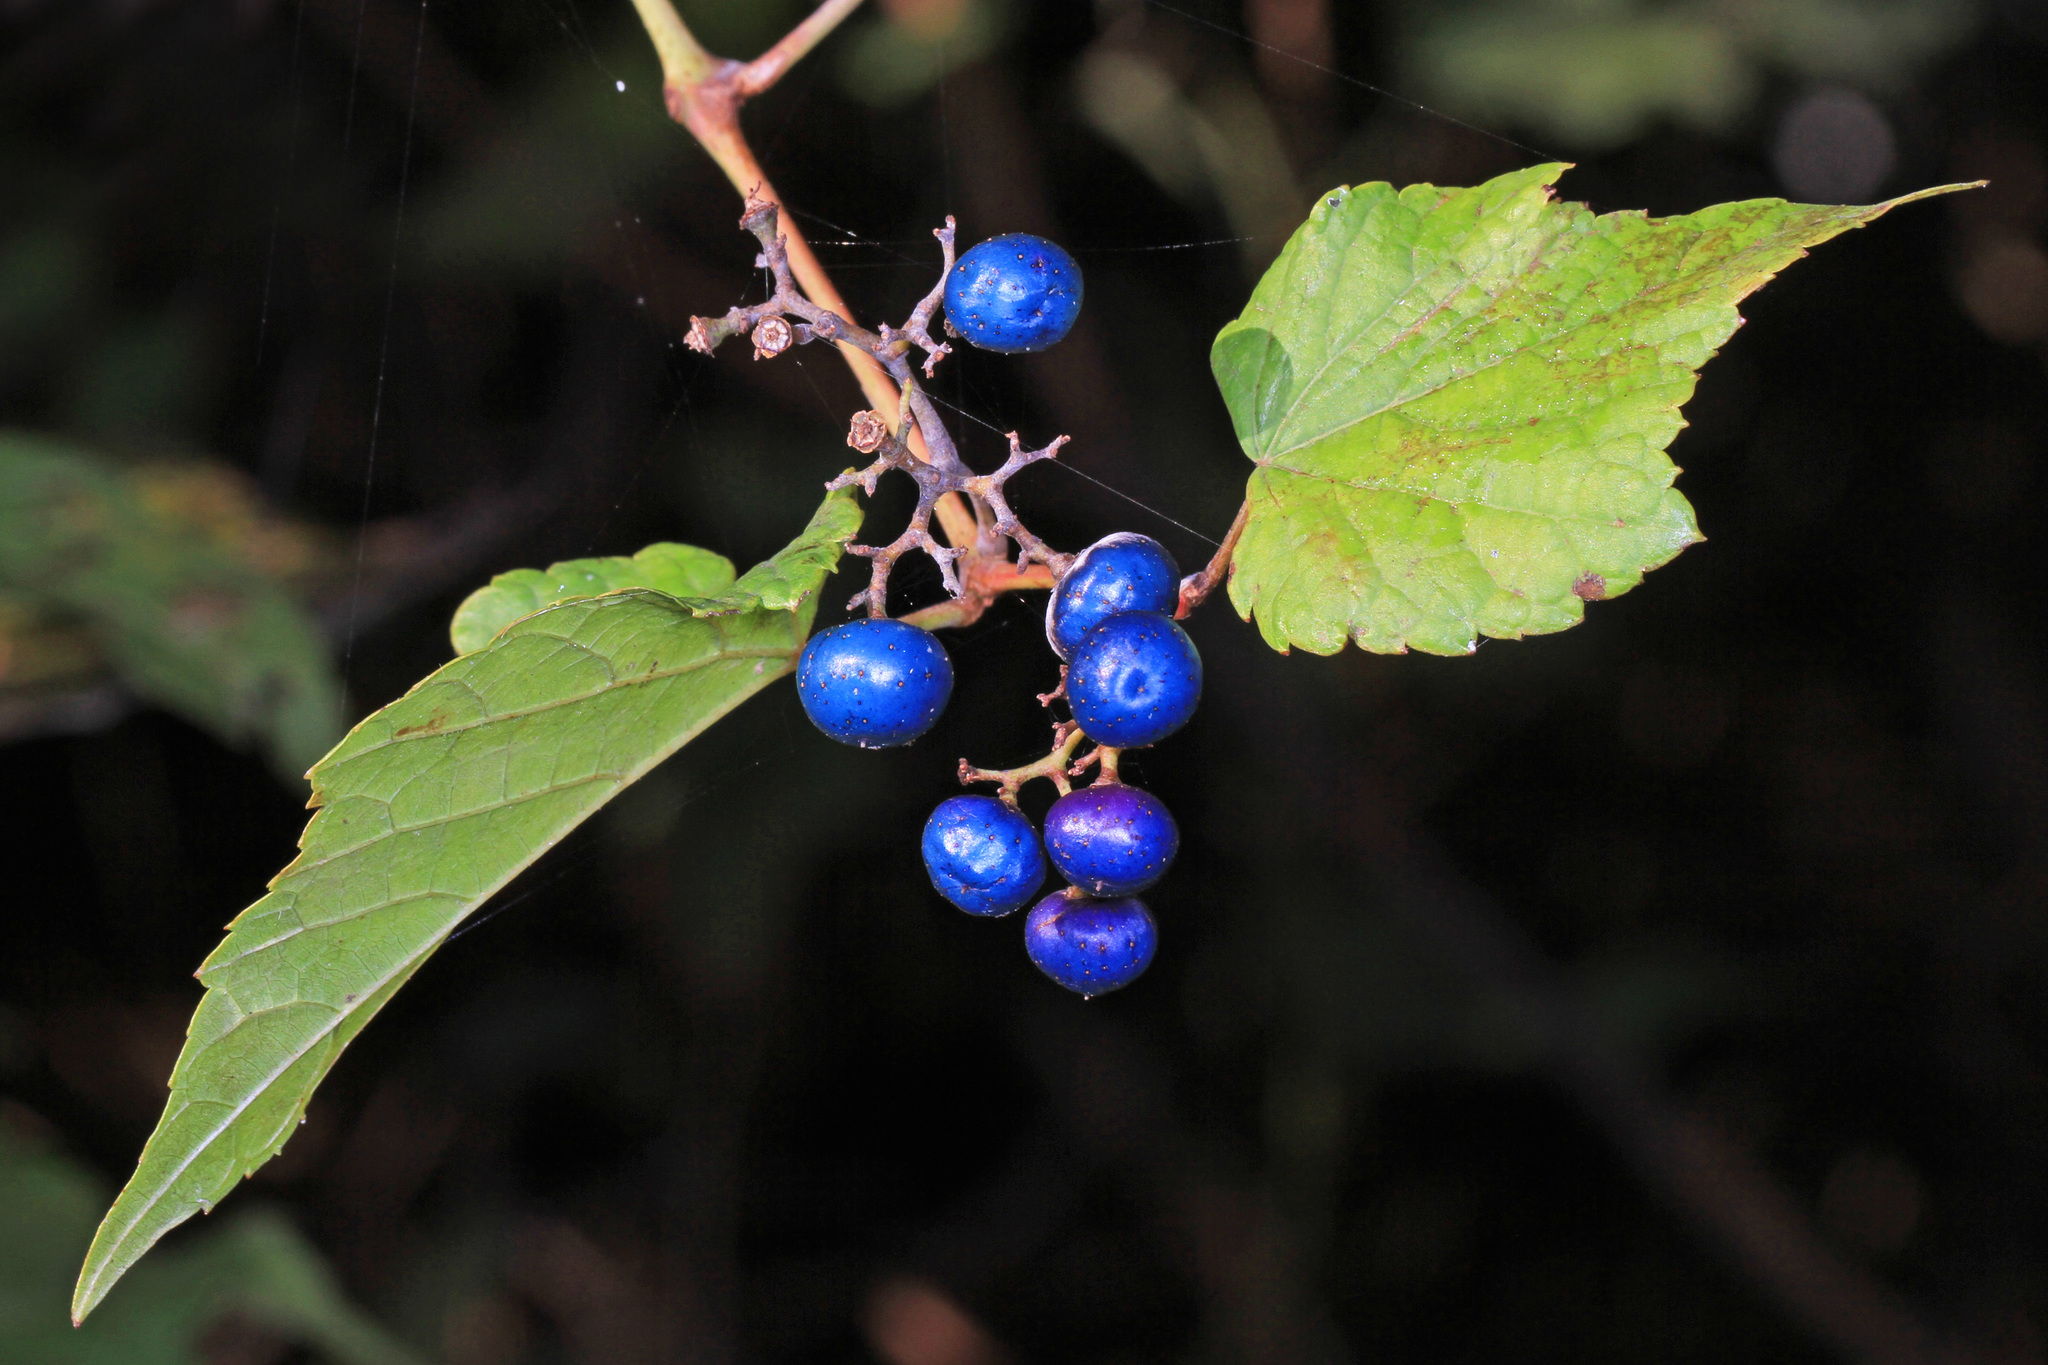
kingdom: Plantae
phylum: Tracheophyta
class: Magnoliopsida
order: Vitales
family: Vitaceae
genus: Ampelopsis
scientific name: Ampelopsis glandulosa
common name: Amur peppervine
